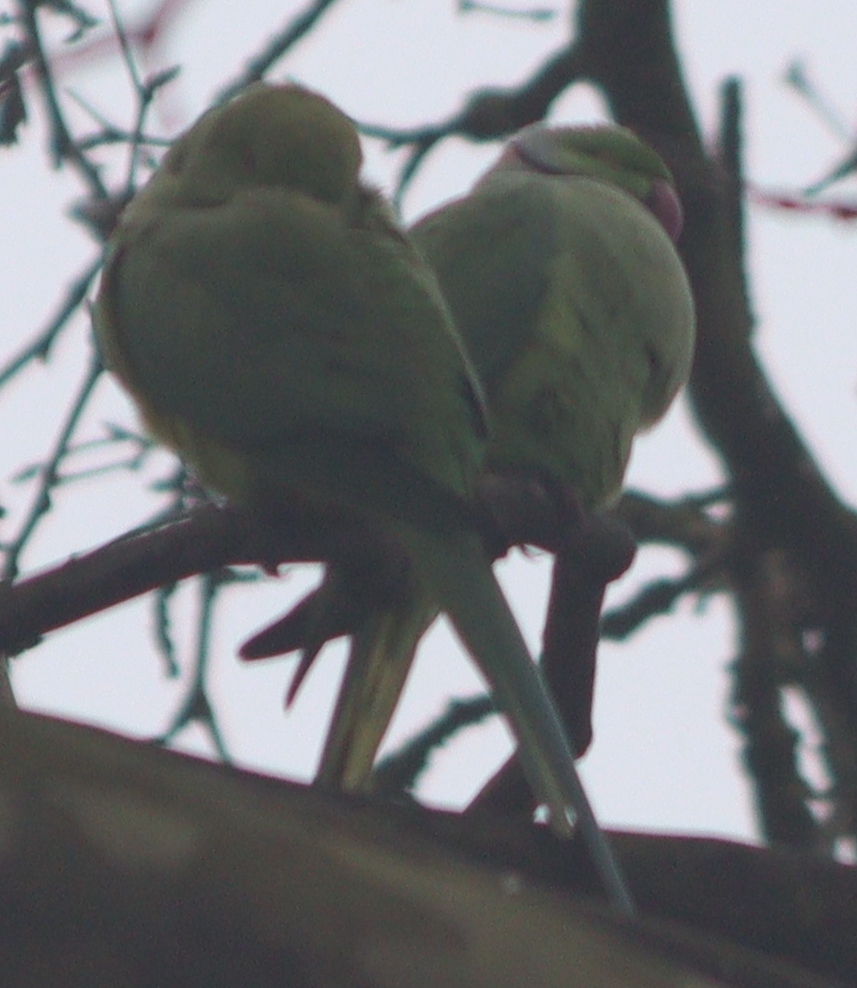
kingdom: Animalia
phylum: Chordata
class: Aves
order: Psittaciformes
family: Psittacidae
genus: Psittacula
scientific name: Psittacula krameri
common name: Rose-ringed parakeet
